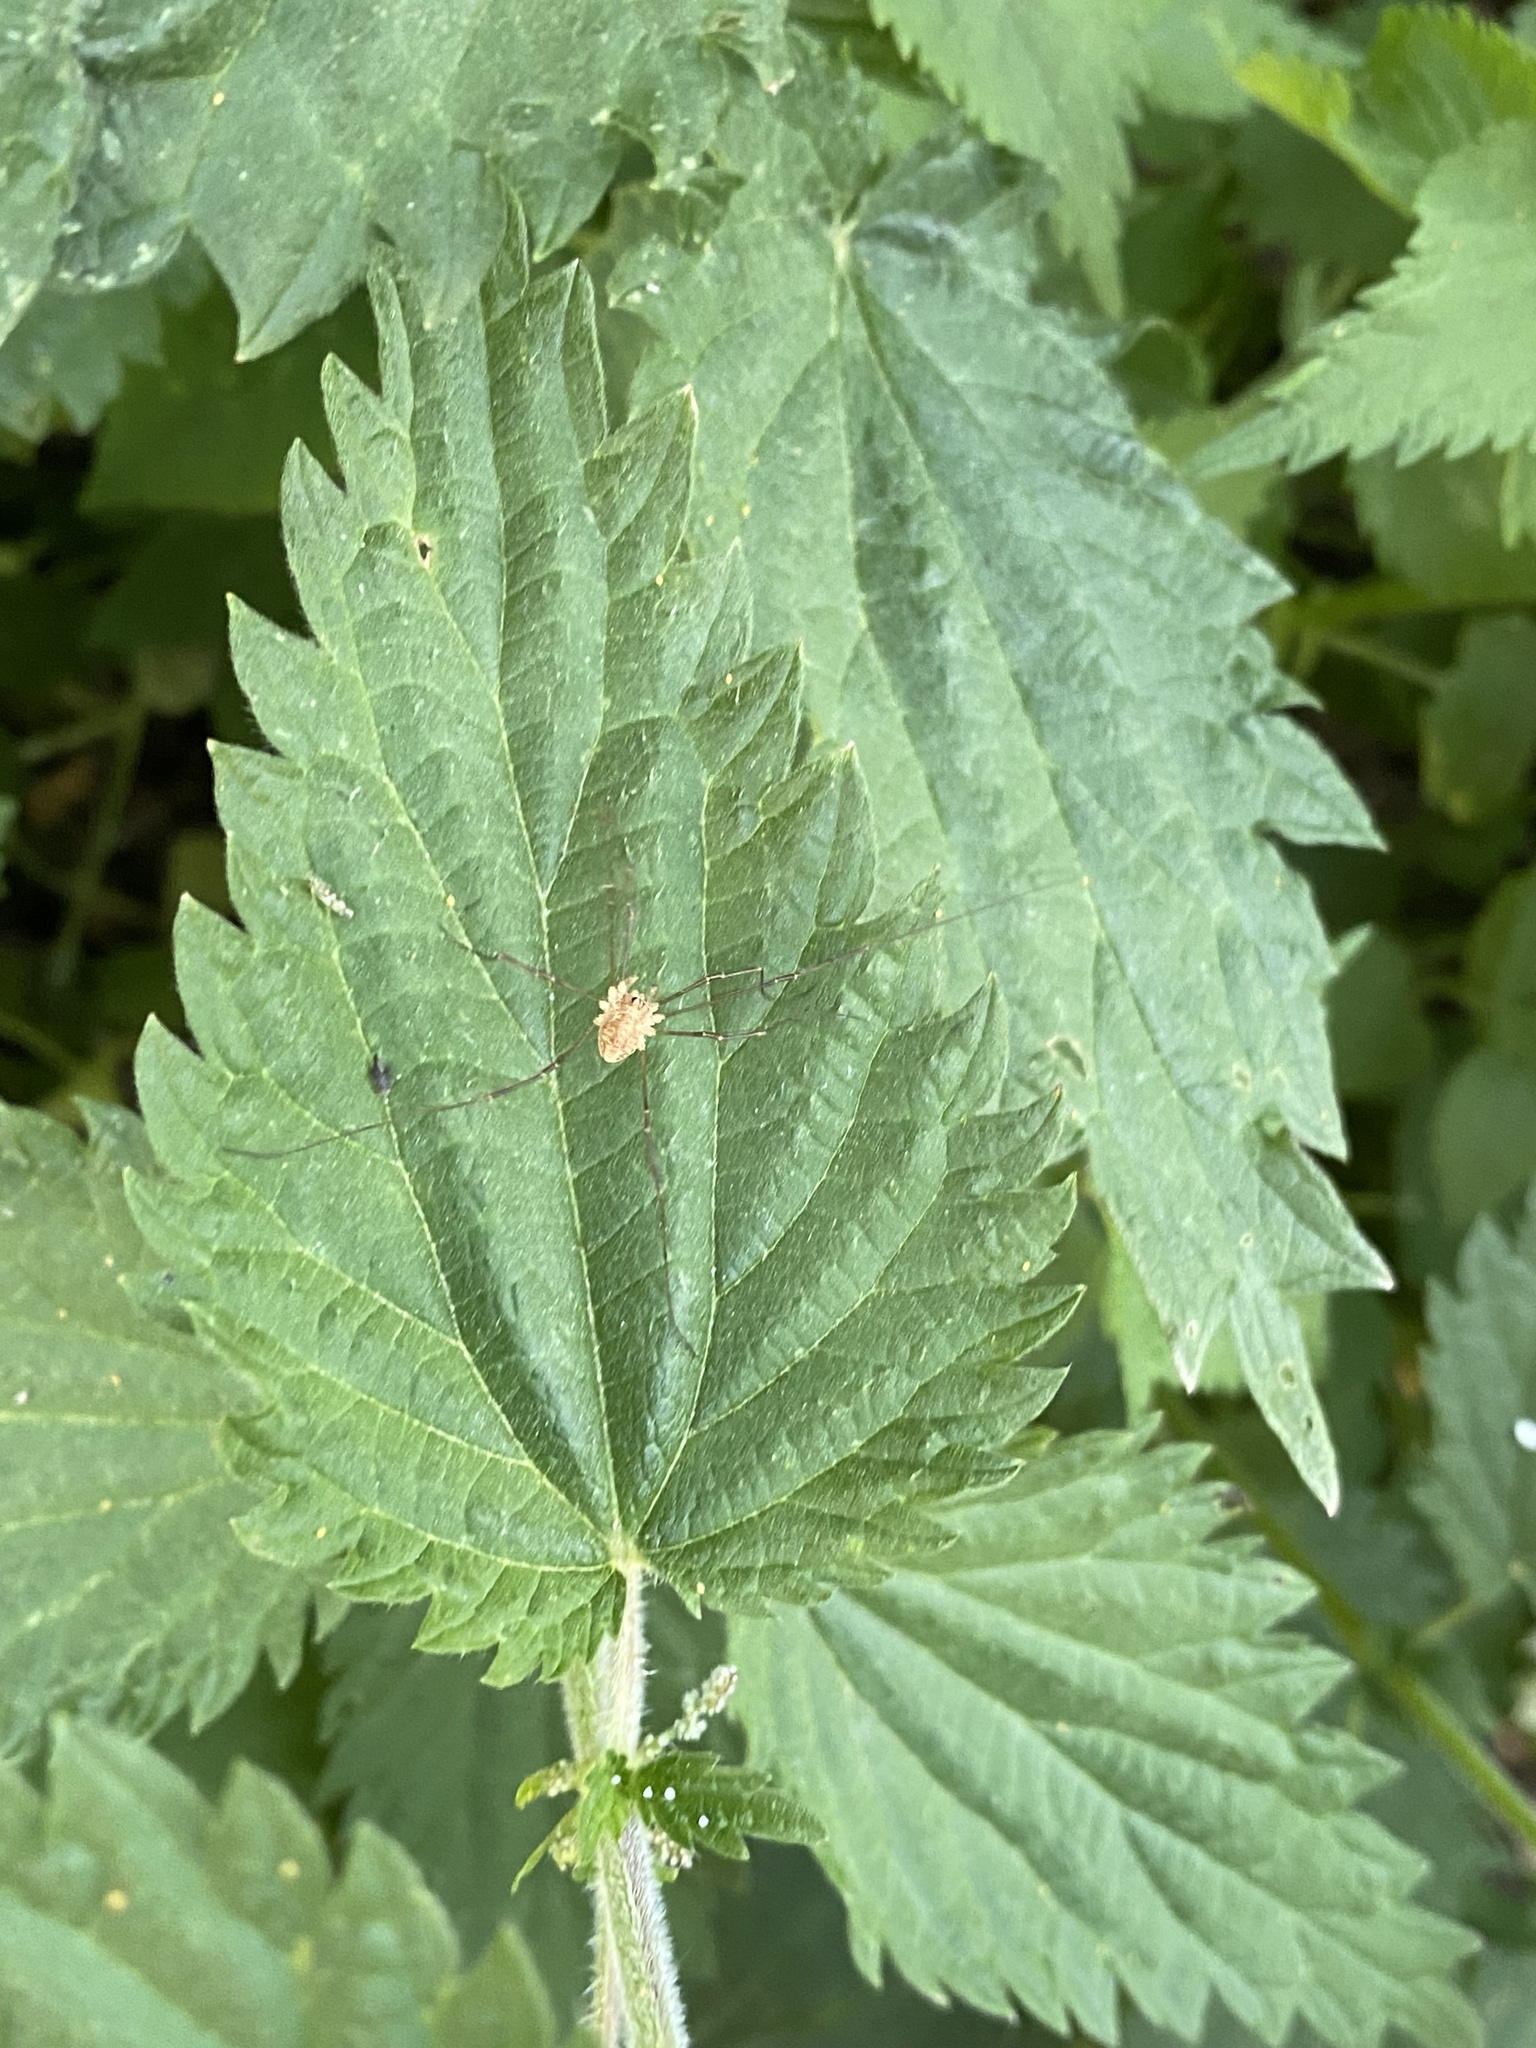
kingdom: Animalia
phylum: Arthropoda
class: Arachnida
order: Opiliones
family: Phalangiidae
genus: Rilaena
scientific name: Rilaena triangularis
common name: Spring harvestman
